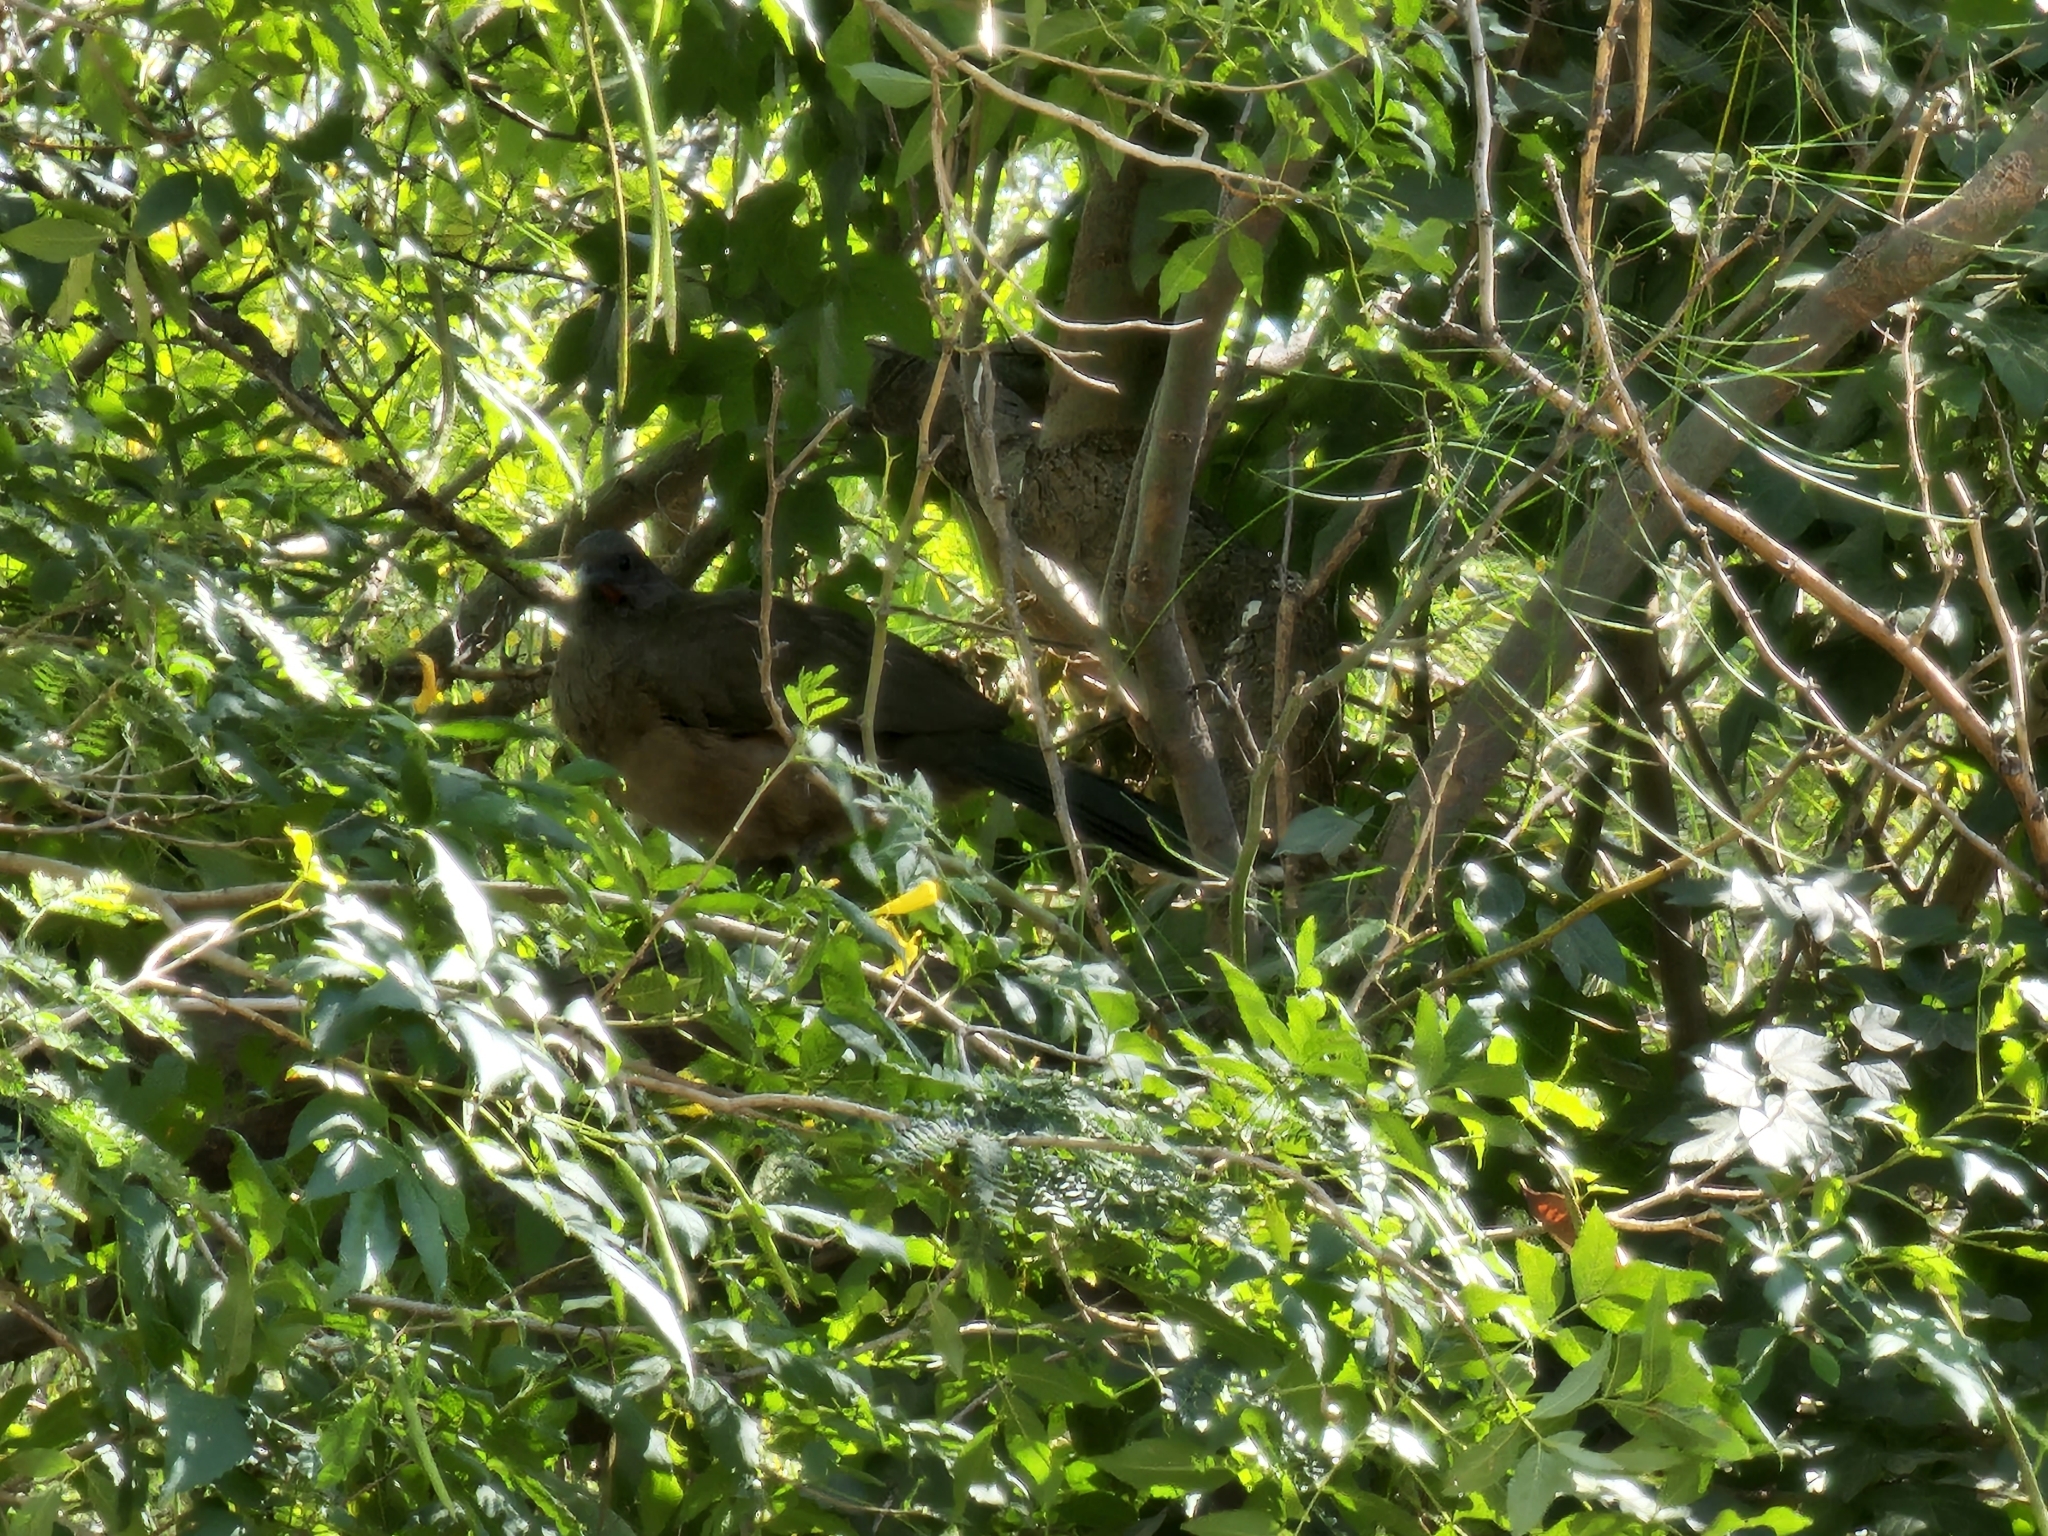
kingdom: Animalia
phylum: Chordata
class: Aves
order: Galliformes
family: Cracidae
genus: Ortalis
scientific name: Ortalis vetula
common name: Plain chachalaca
